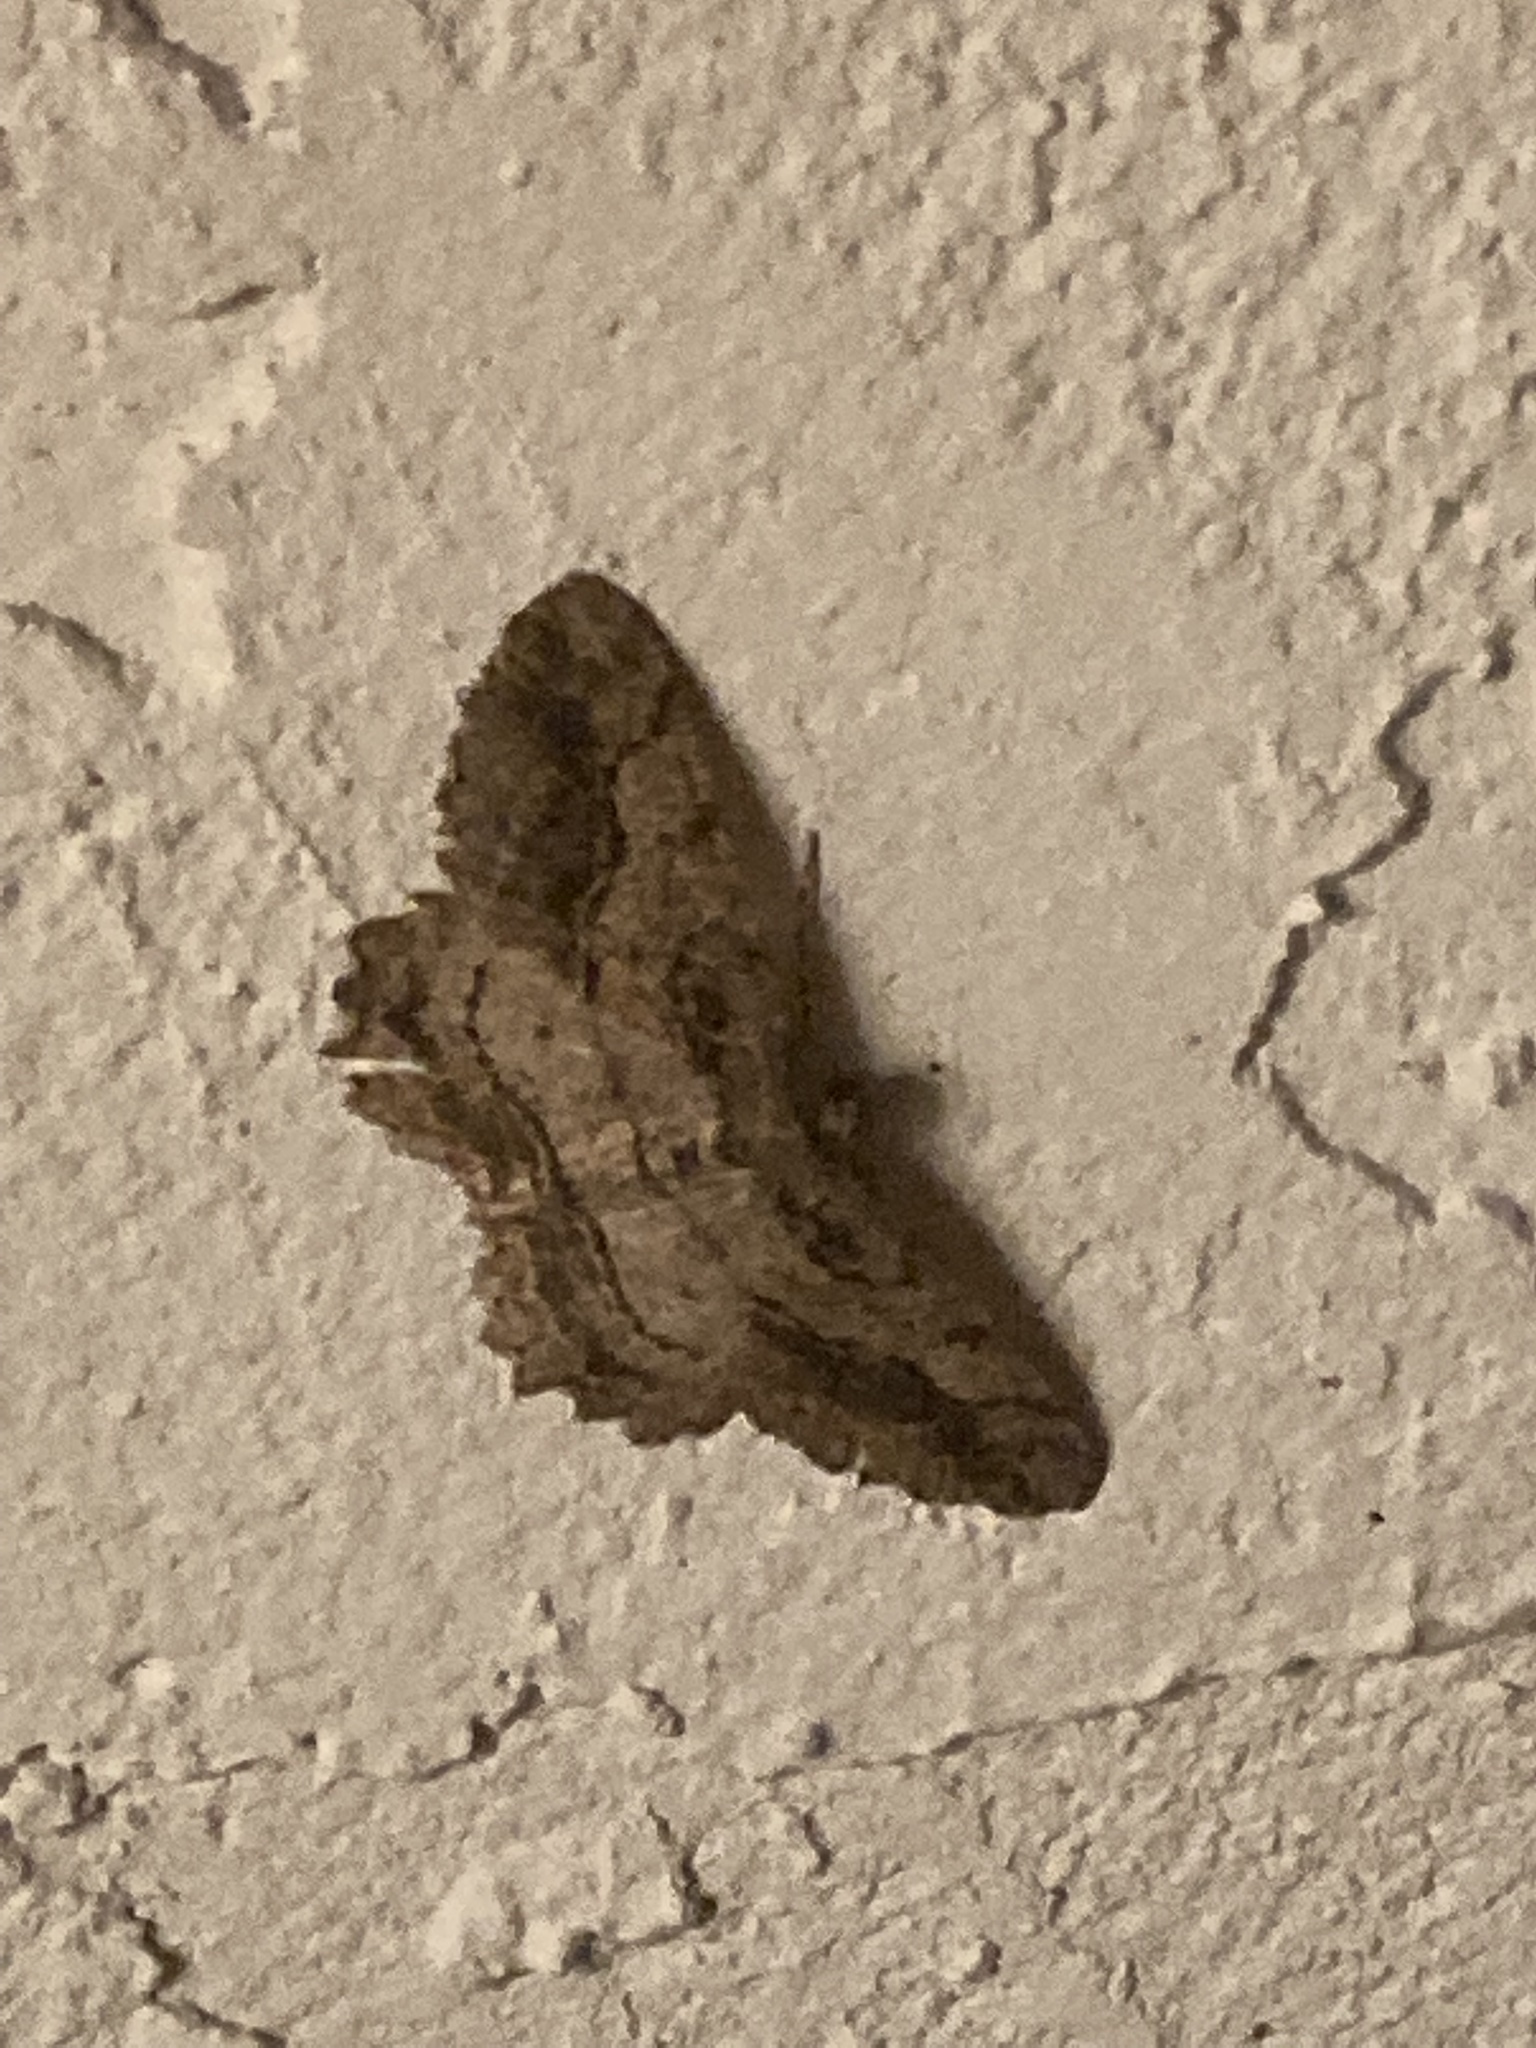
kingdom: Animalia
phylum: Arthropoda
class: Insecta
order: Lepidoptera
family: Geometridae
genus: Neoalcis
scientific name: Neoalcis californiaria
